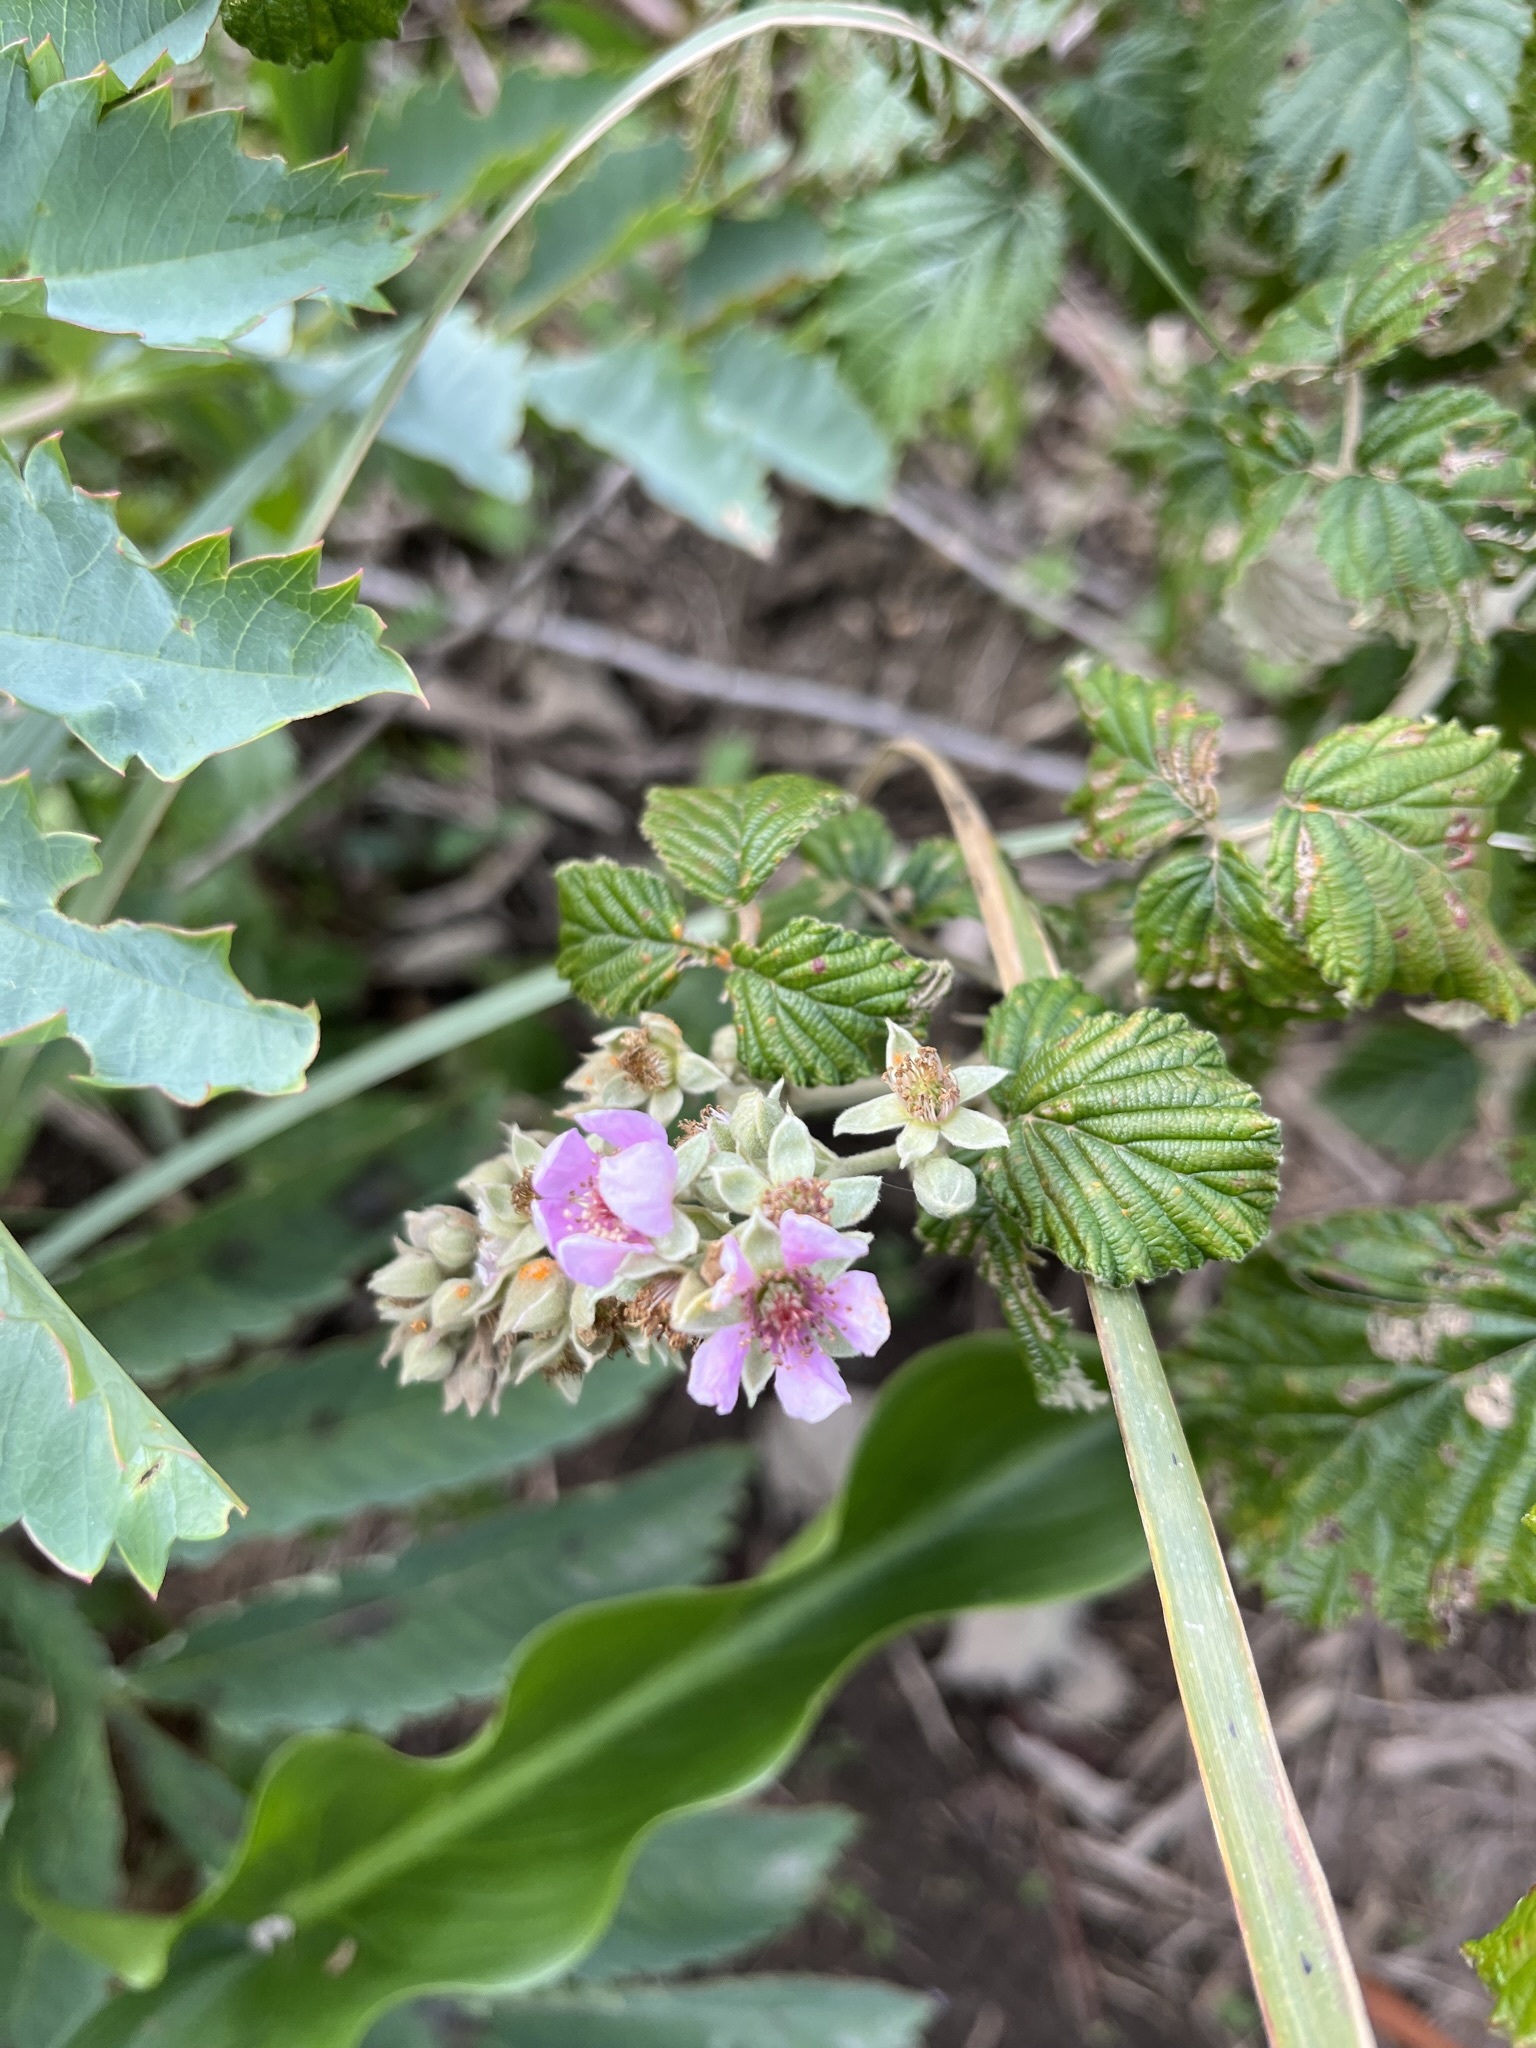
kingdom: Plantae
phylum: Tracheophyta
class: Magnoliopsida
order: Rosales
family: Rosaceae
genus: Rubus
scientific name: Rubus rigidus
